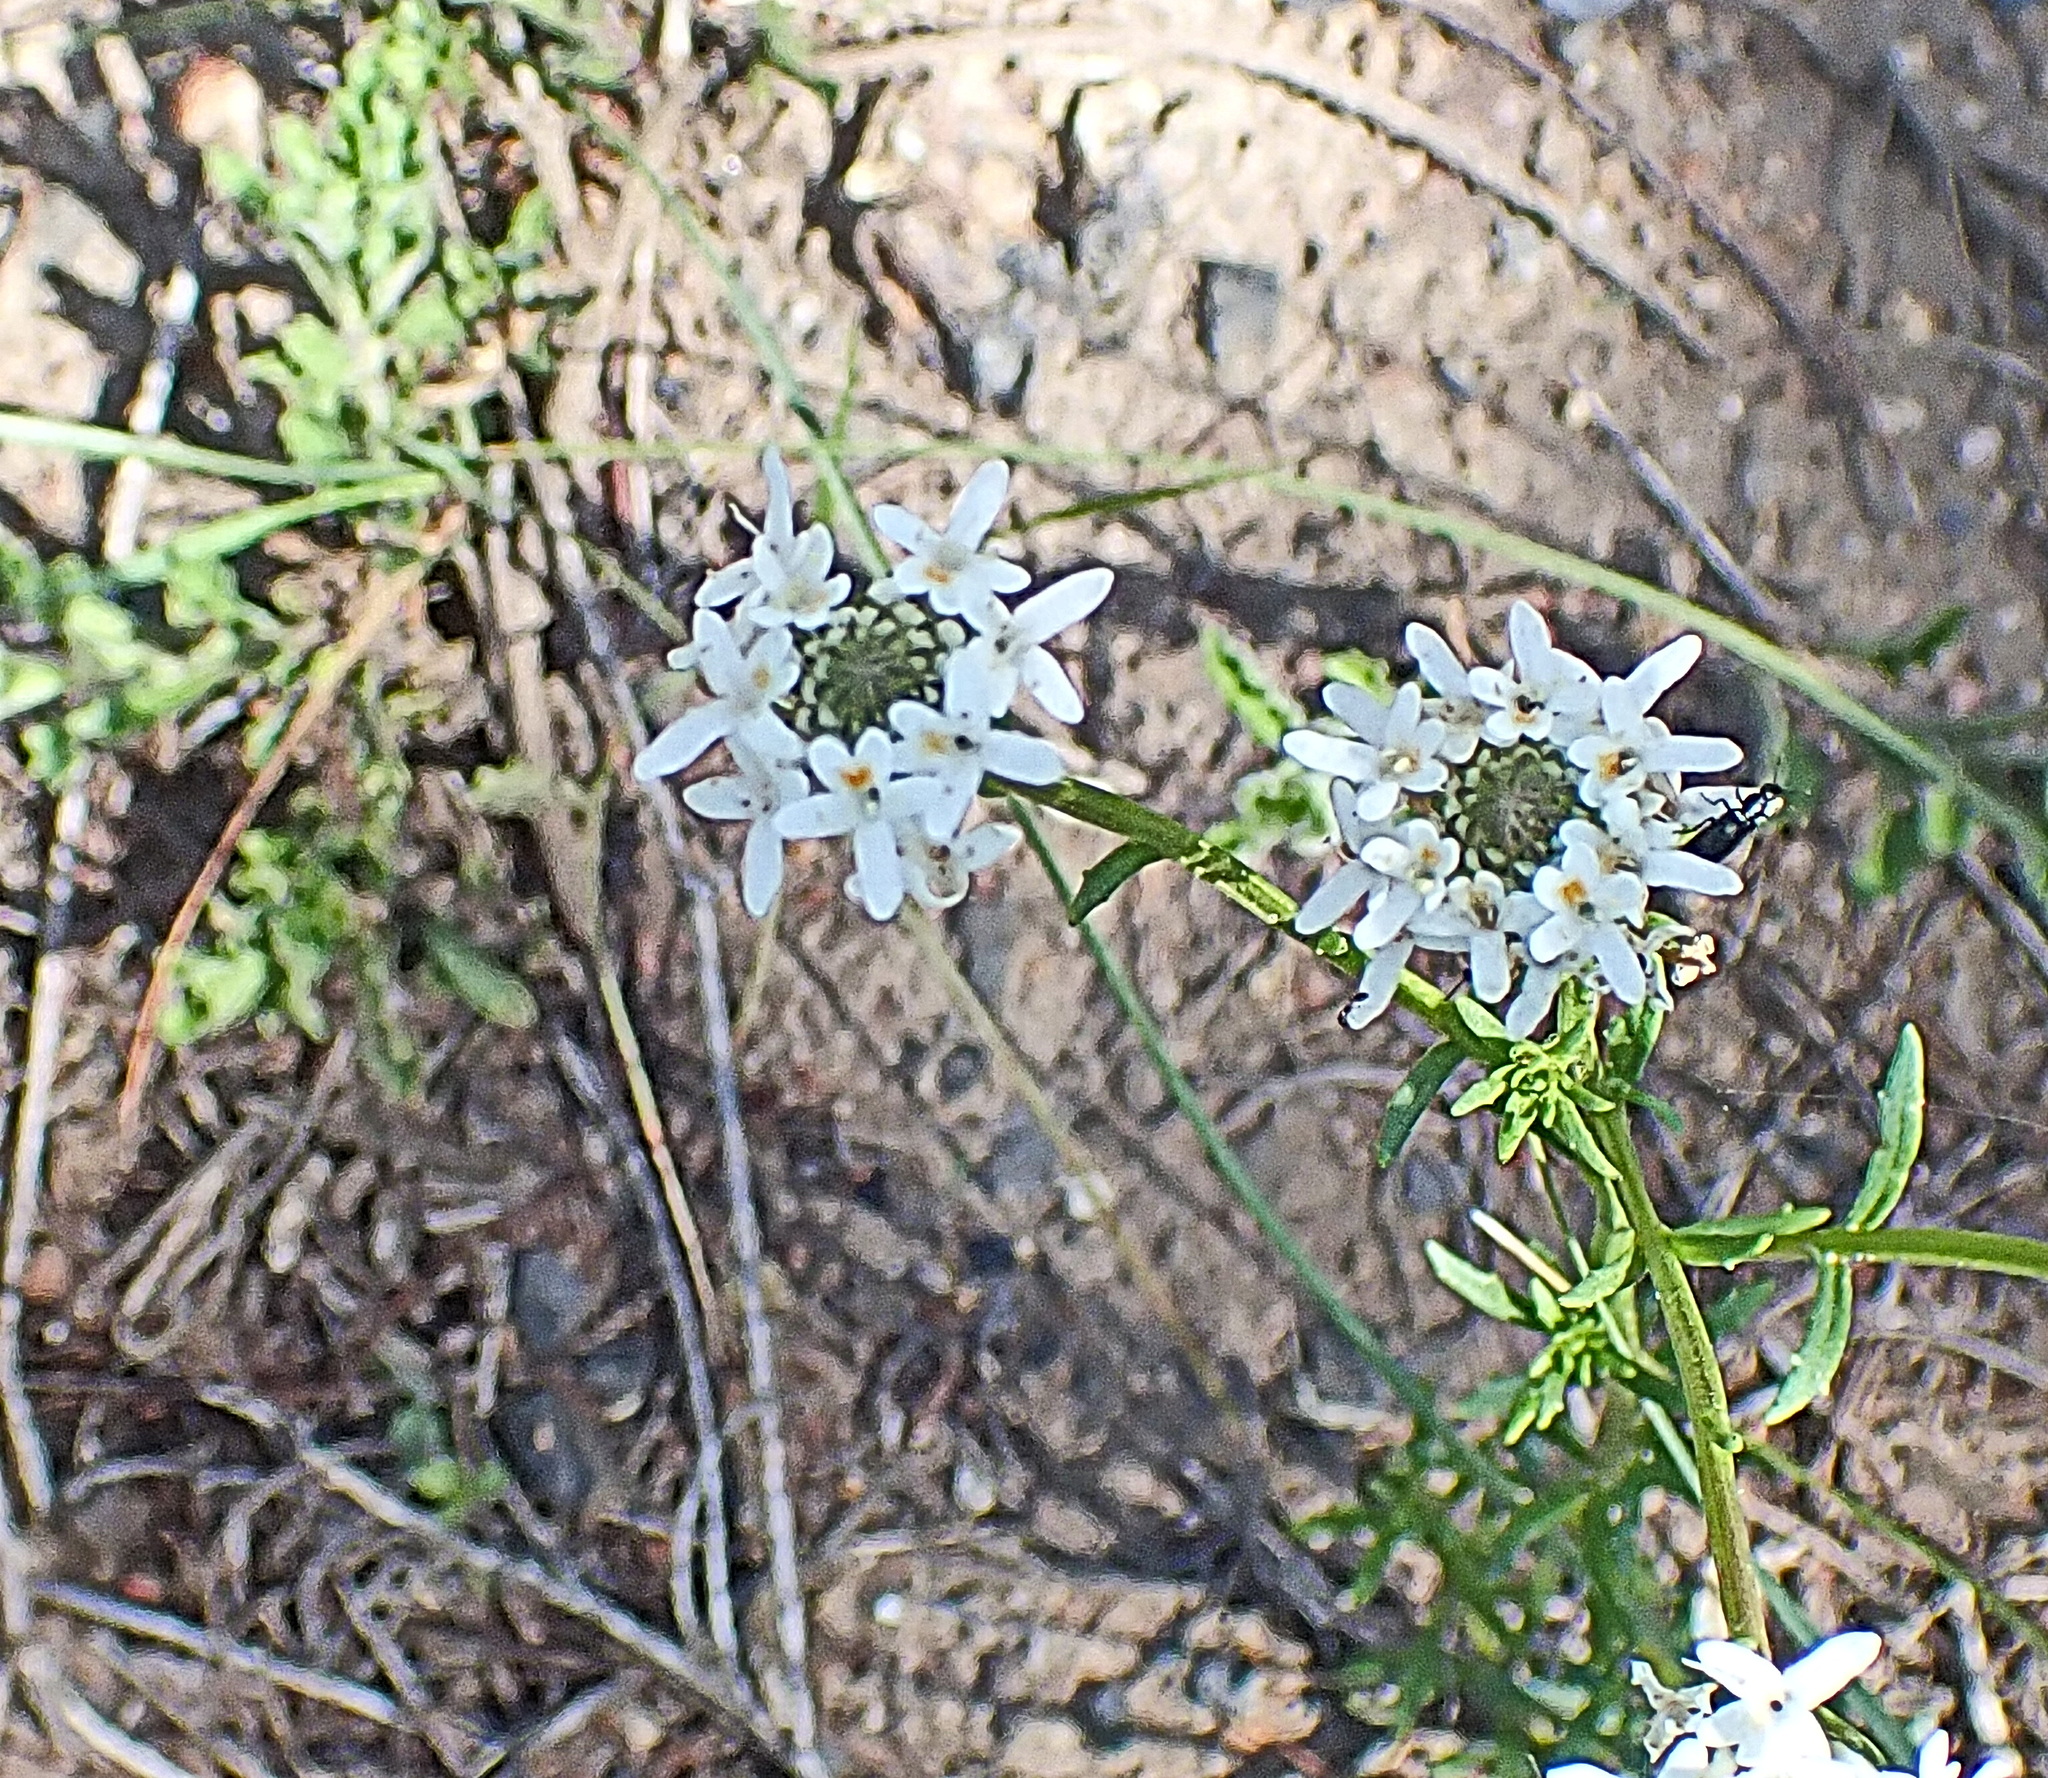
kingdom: Plantae
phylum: Tracheophyta
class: Magnoliopsida
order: Lamiales
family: Scrophulariaceae
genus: Pseudoselago
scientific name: Pseudoselago outeniquensis
